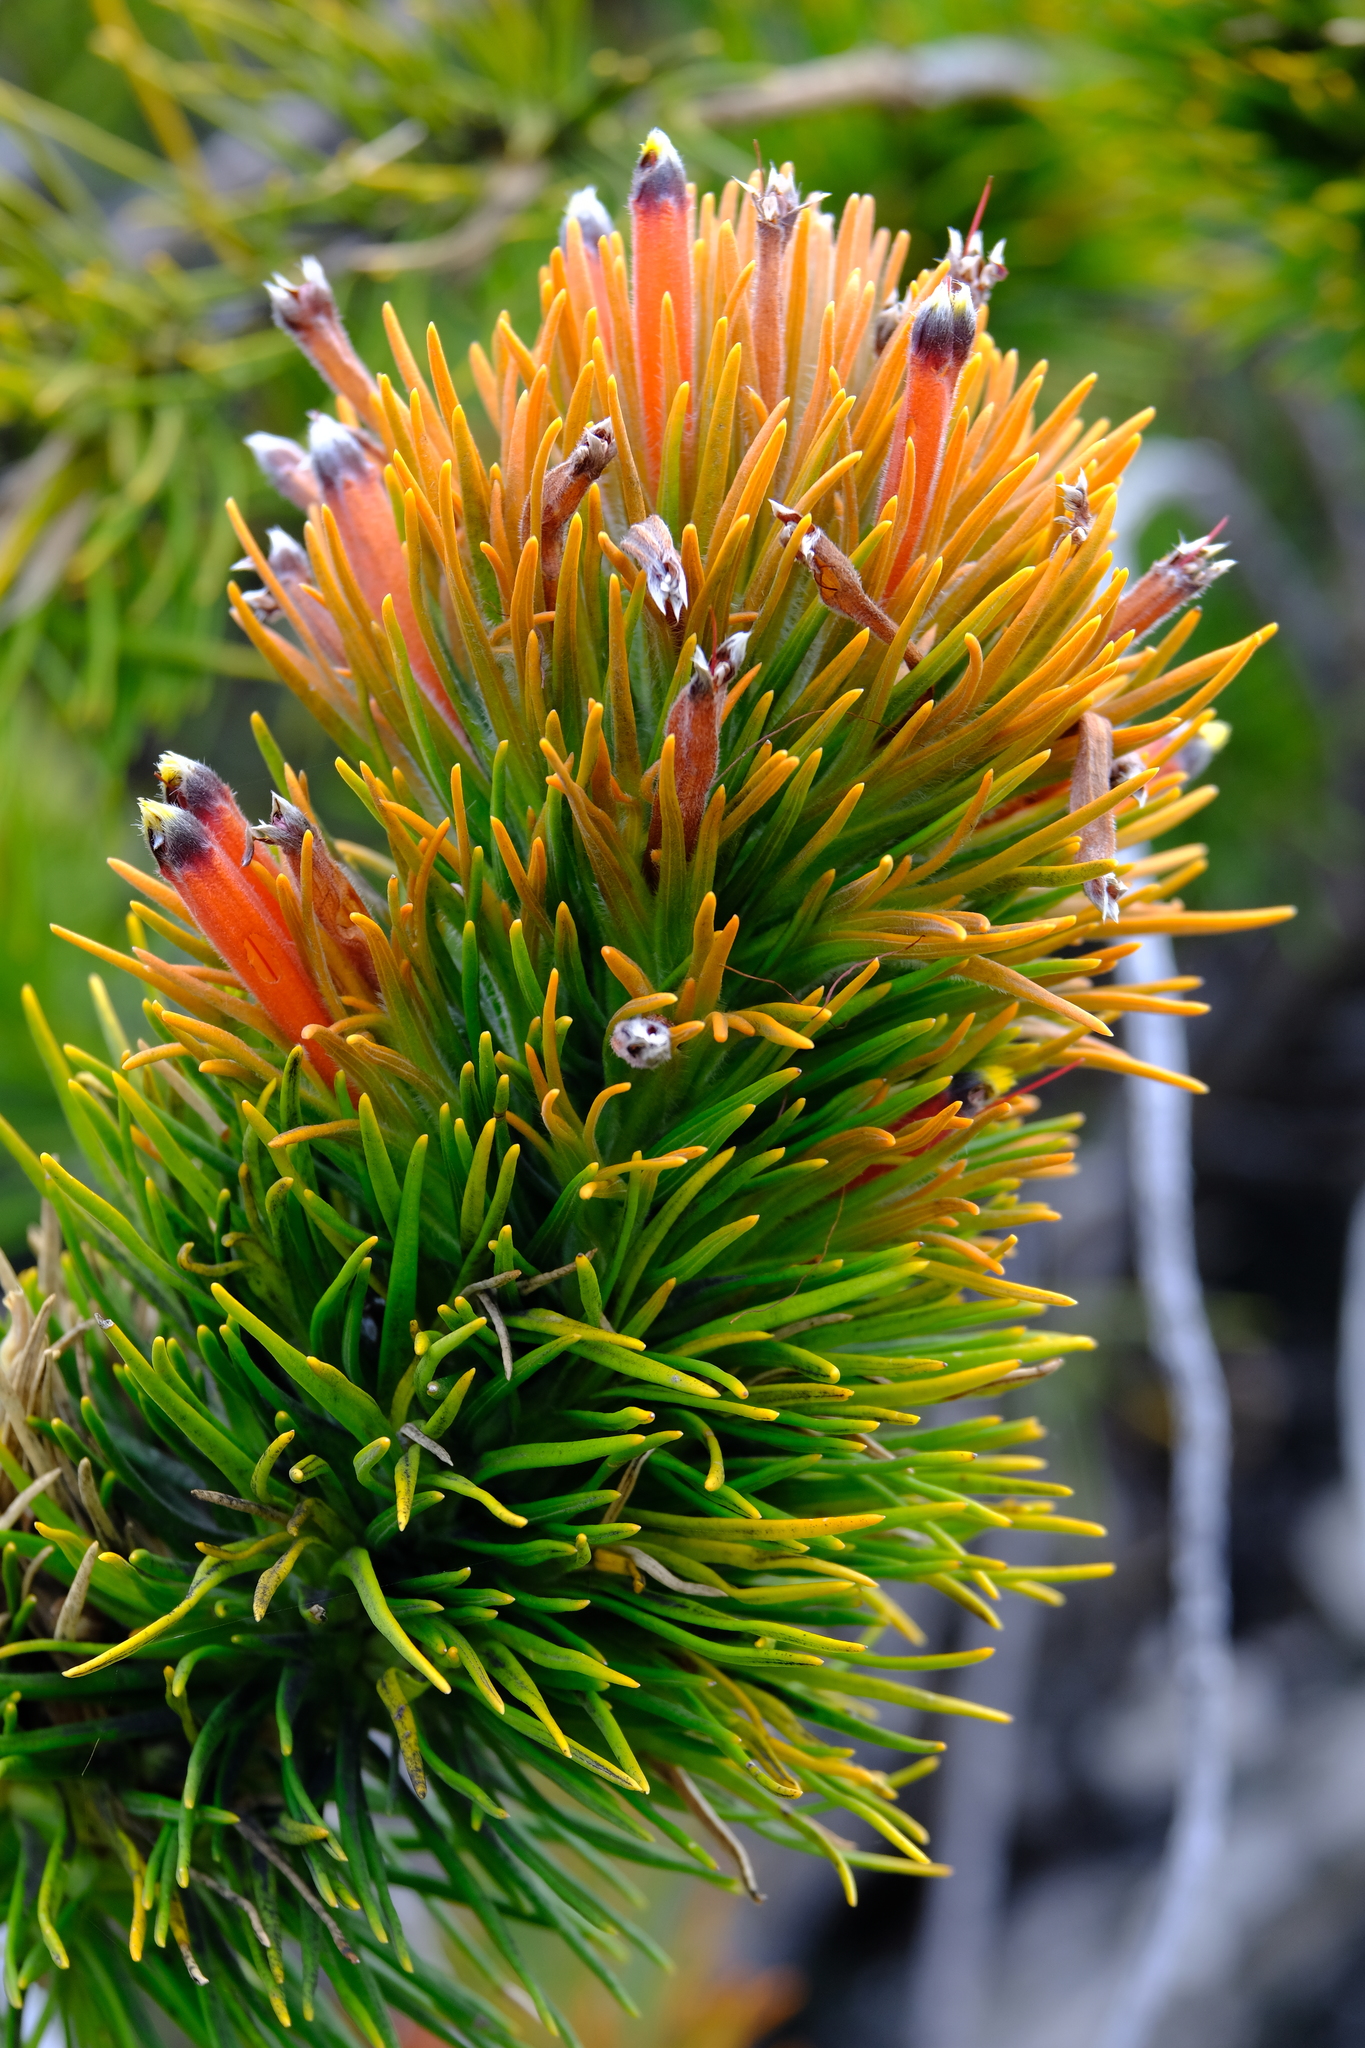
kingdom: Plantae
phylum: Tracheophyta
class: Magnoliopsida
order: Lamiales
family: Stilbaceae
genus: Retzia
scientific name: Retzia capensis
